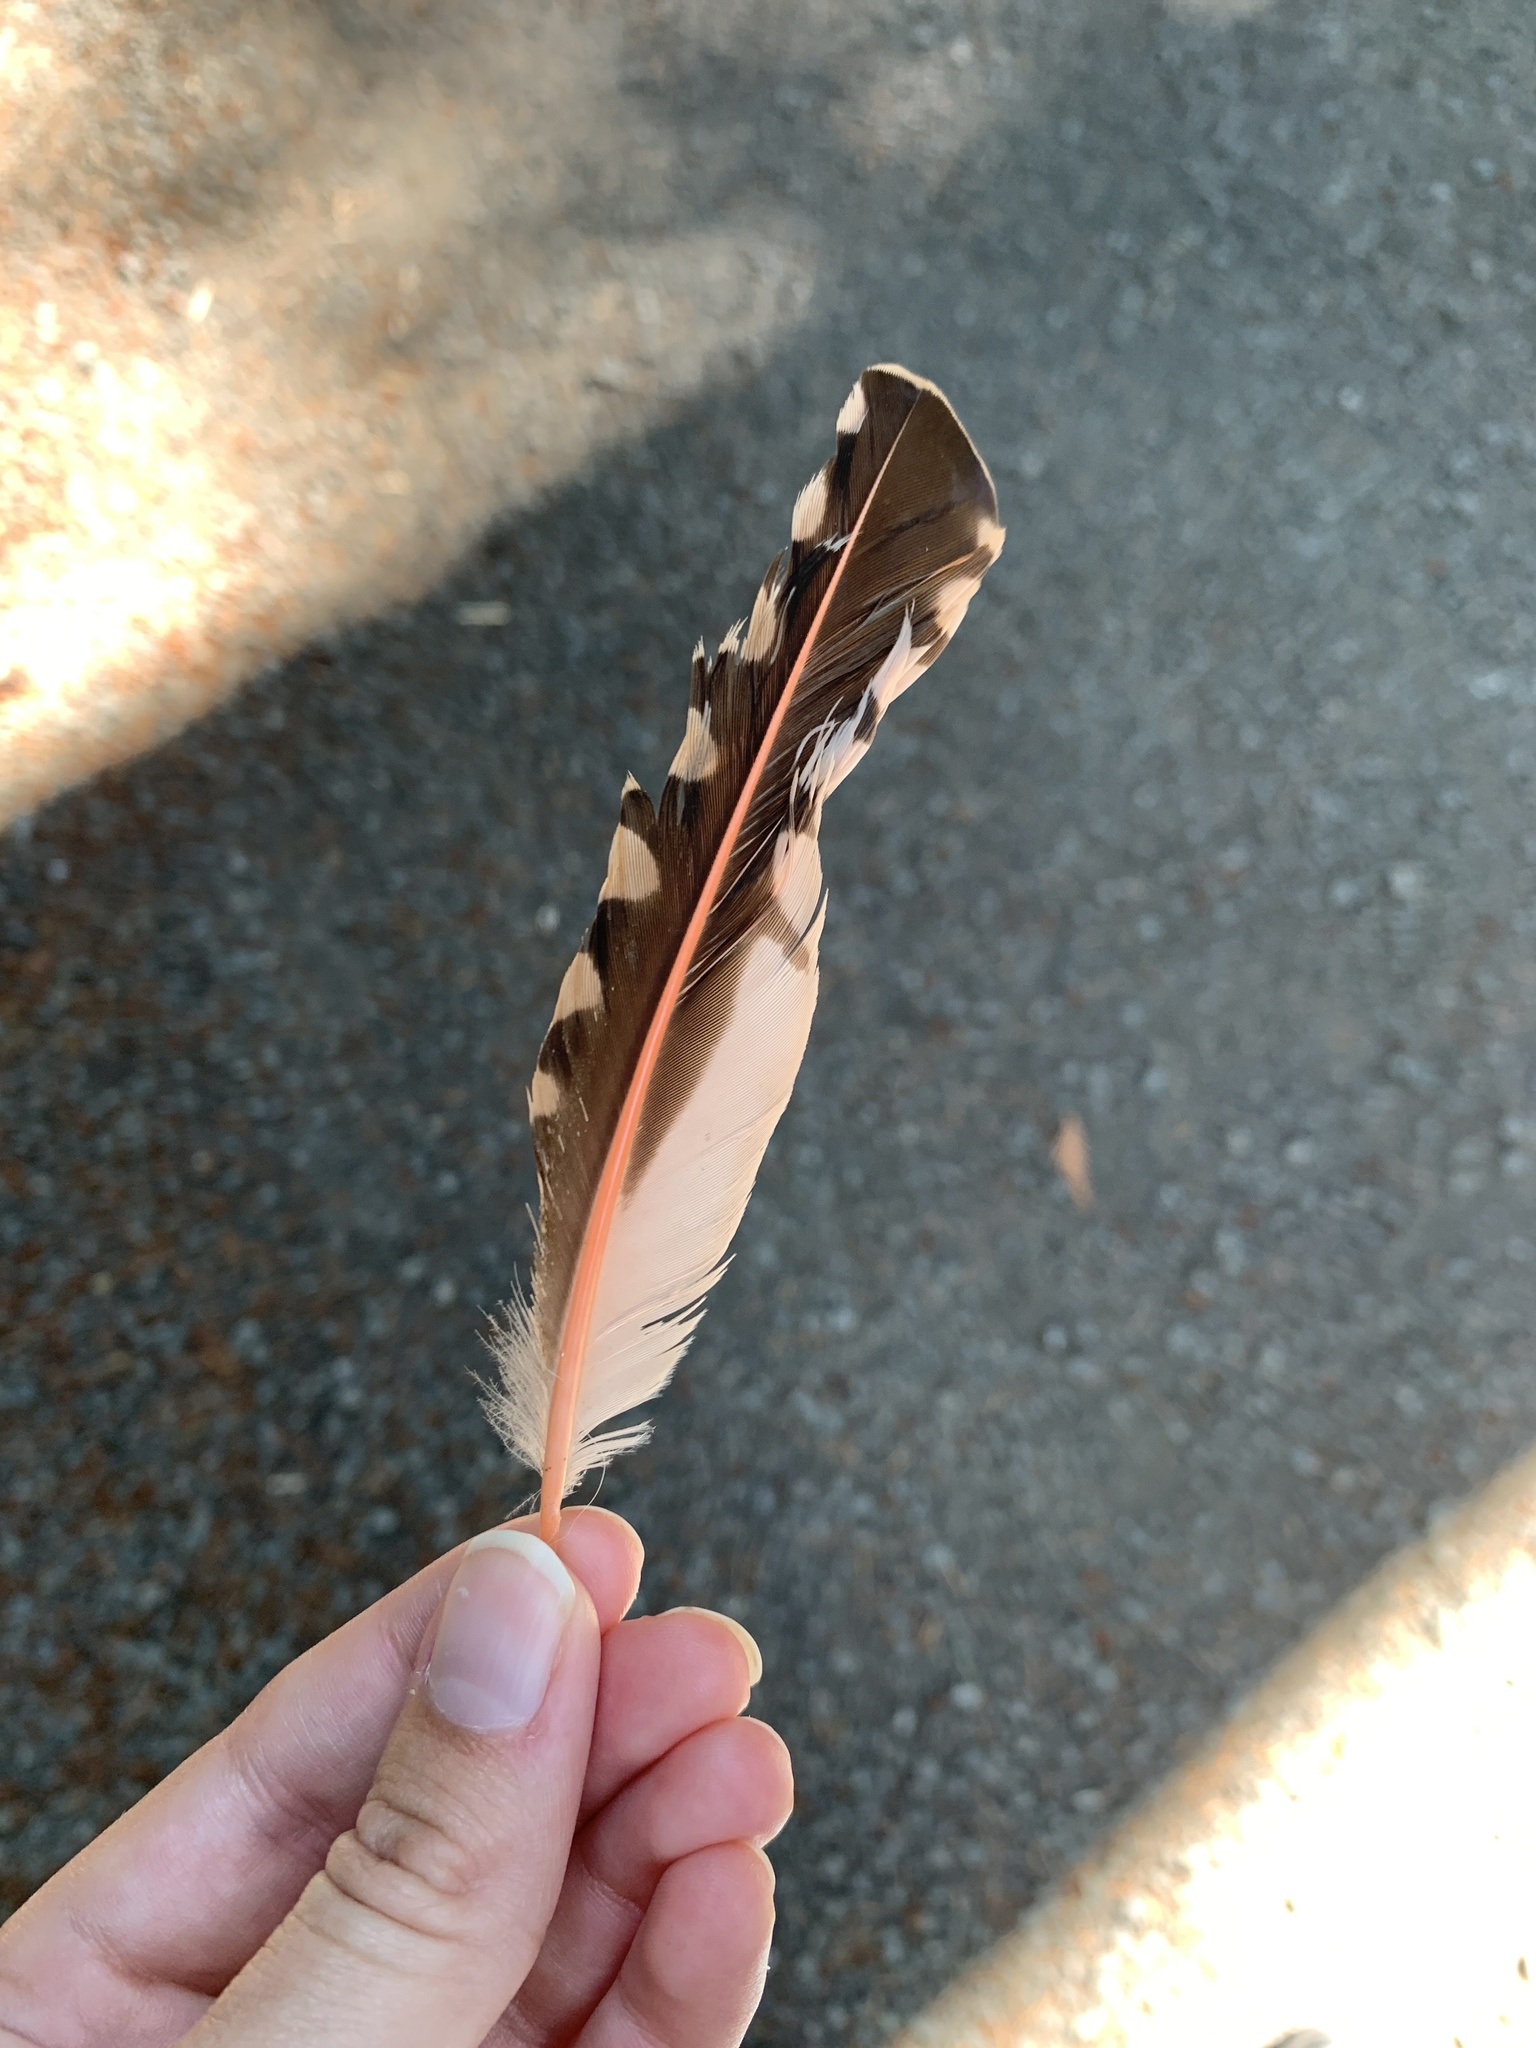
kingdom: Animalia
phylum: Chordata
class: Aves
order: Piciformes
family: Picidae
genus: Colaptes
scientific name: Colaptes auratus
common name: Northern flicker
